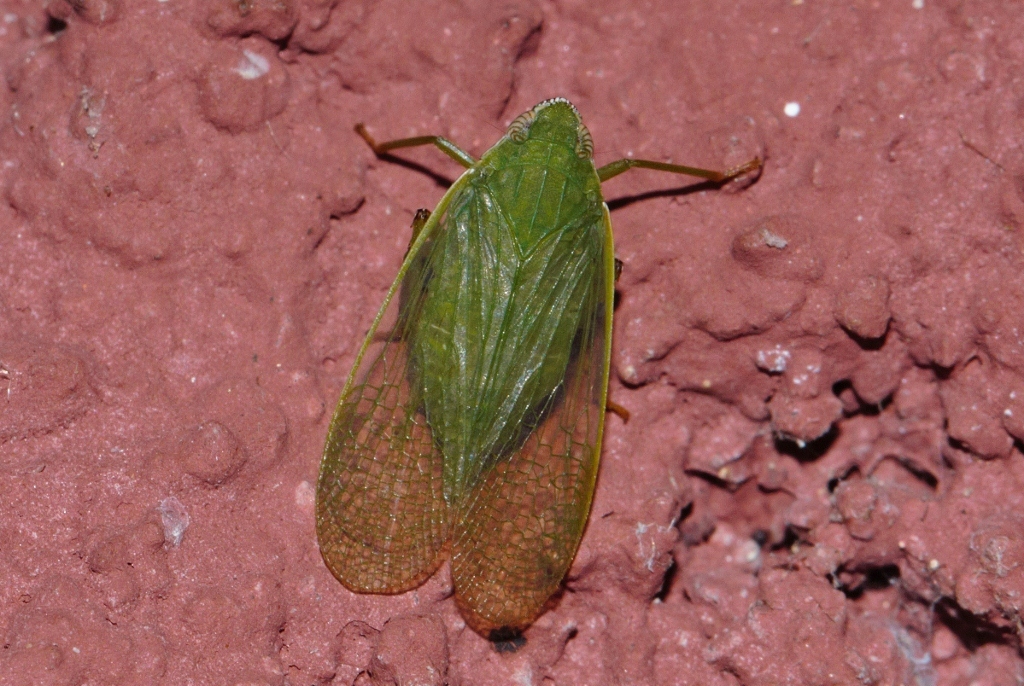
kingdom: Animalia
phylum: Arthropoda
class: Insecta
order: Hemiptera
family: Dictyopharidae
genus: Paradictya
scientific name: Paradictya bicoronata
